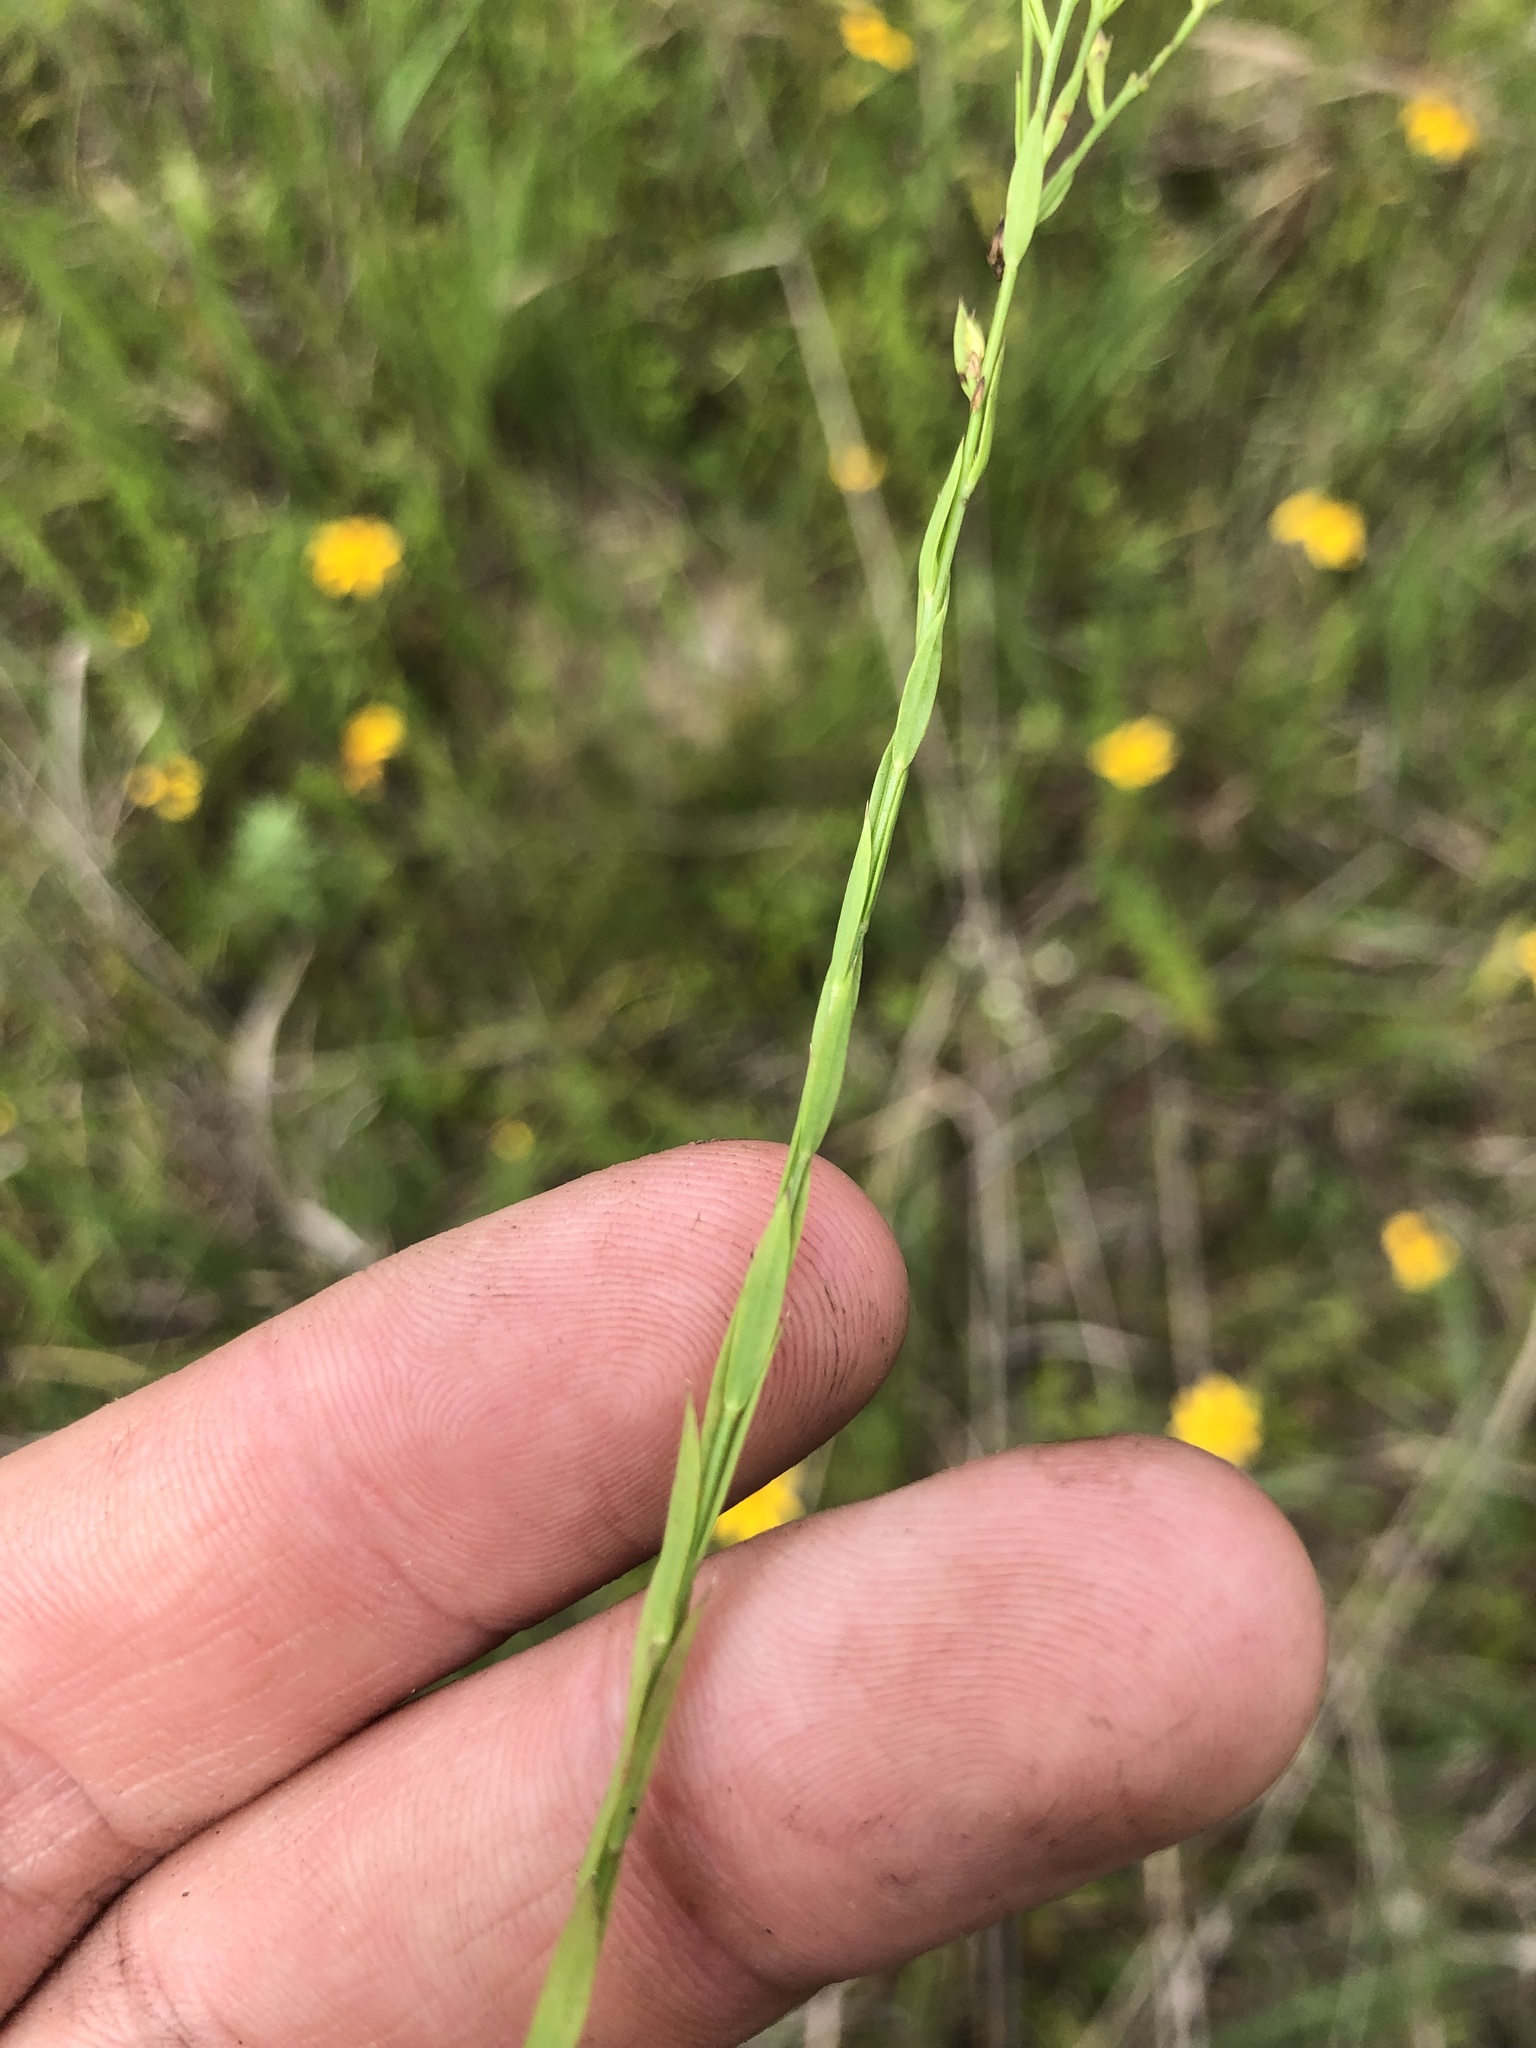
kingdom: Plantae
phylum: Tracheophyta
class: Magnoliopsida
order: Malpighiales
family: Linaceae
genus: Linum
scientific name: Linum sulcatum
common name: Grooved flax
